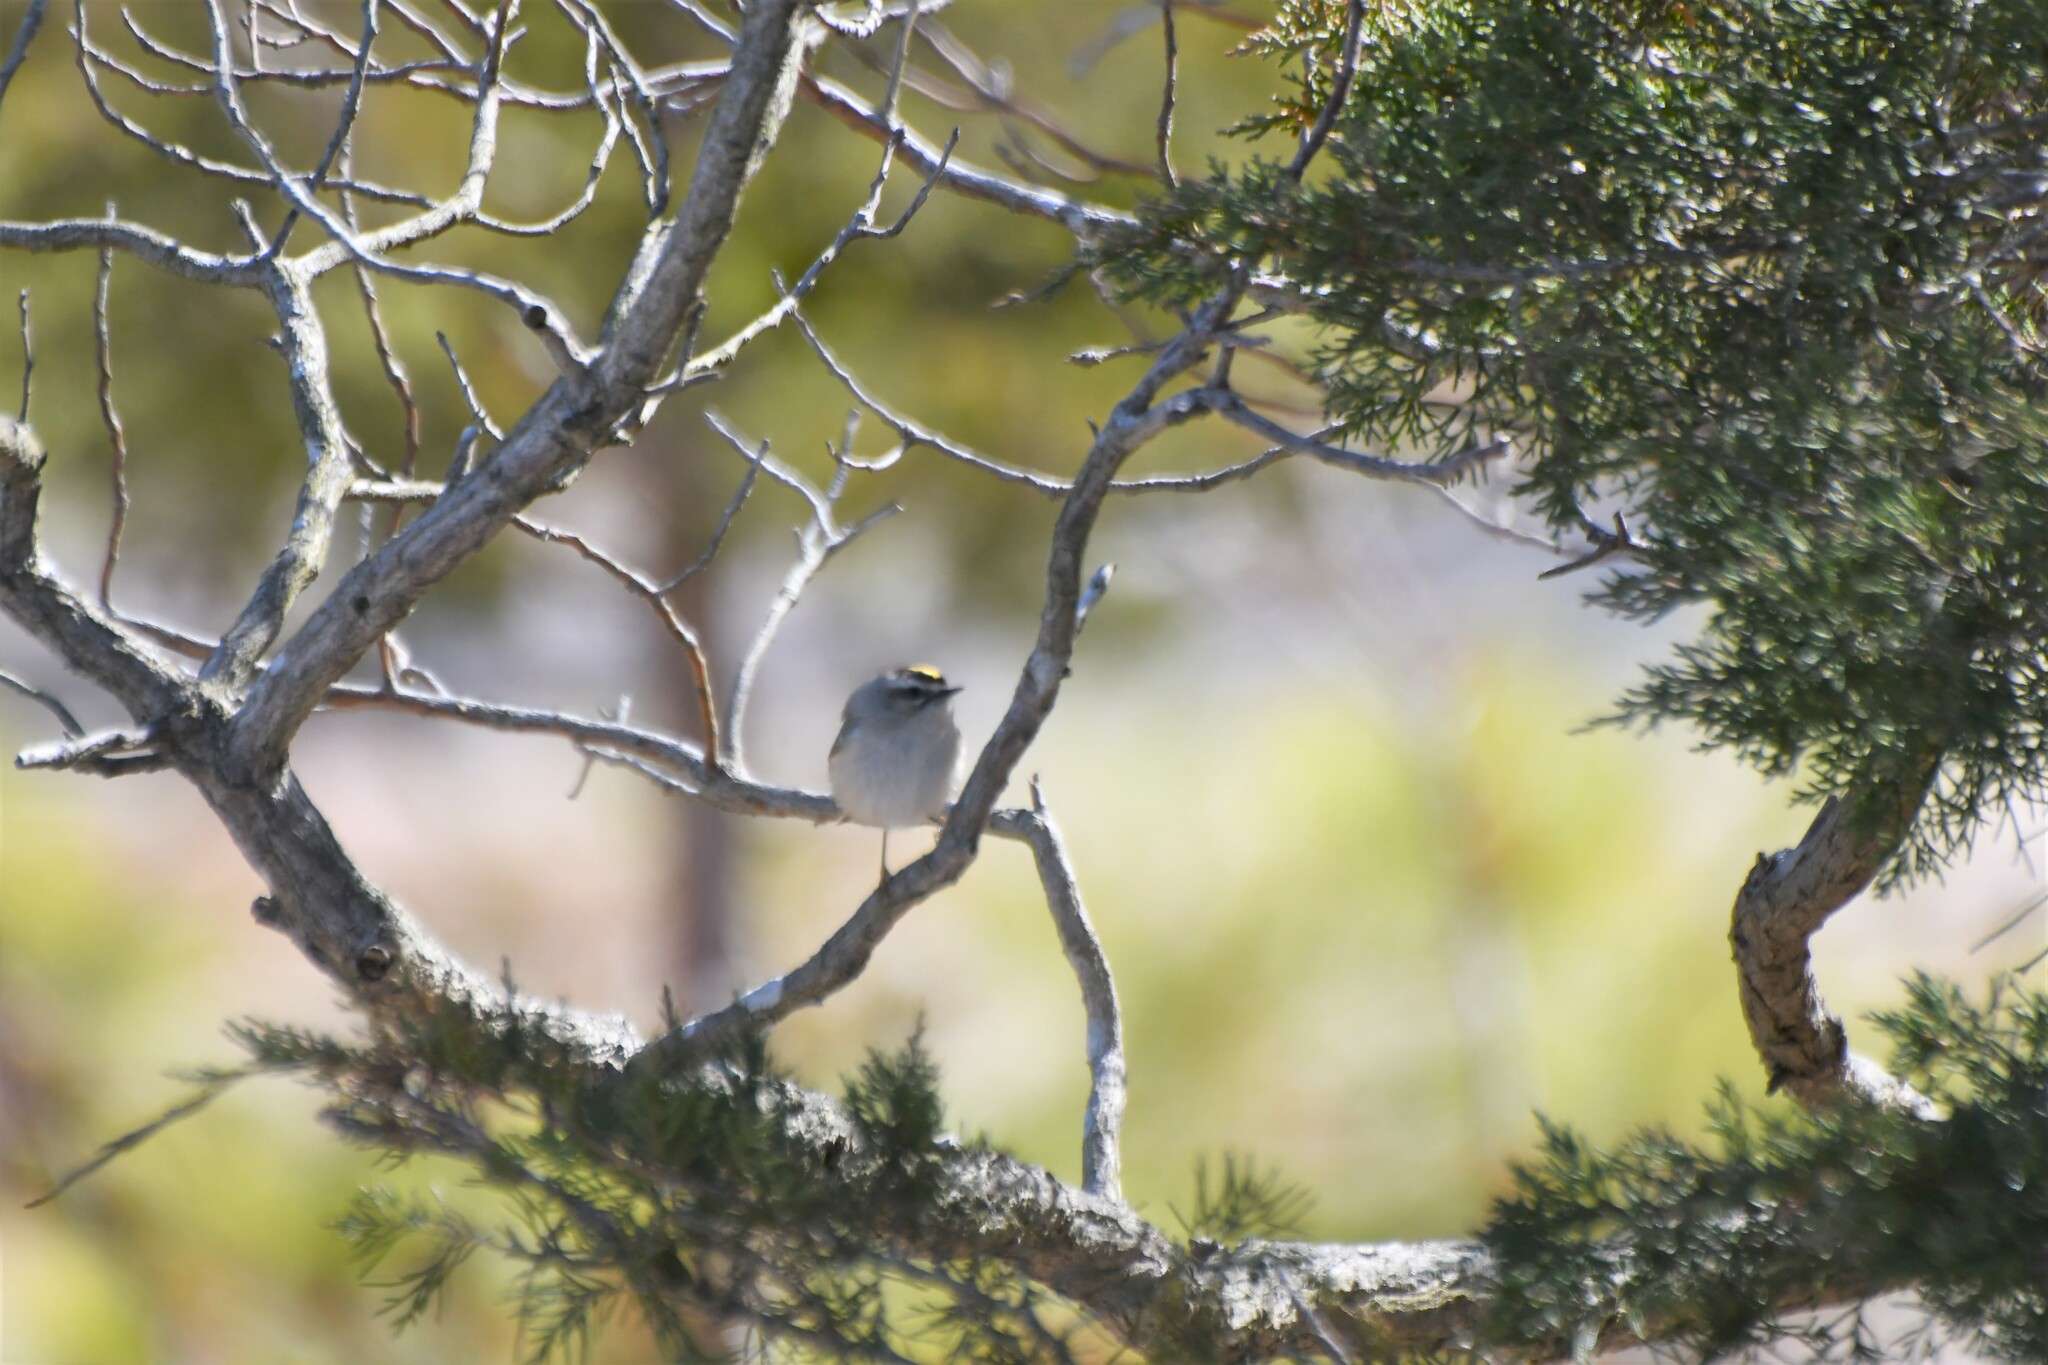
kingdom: Animalia
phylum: Chordata
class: Aves
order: Passeriformes
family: Regulidae
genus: Regulus
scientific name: Regulus satrapa
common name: Golden-crowned kinglet
